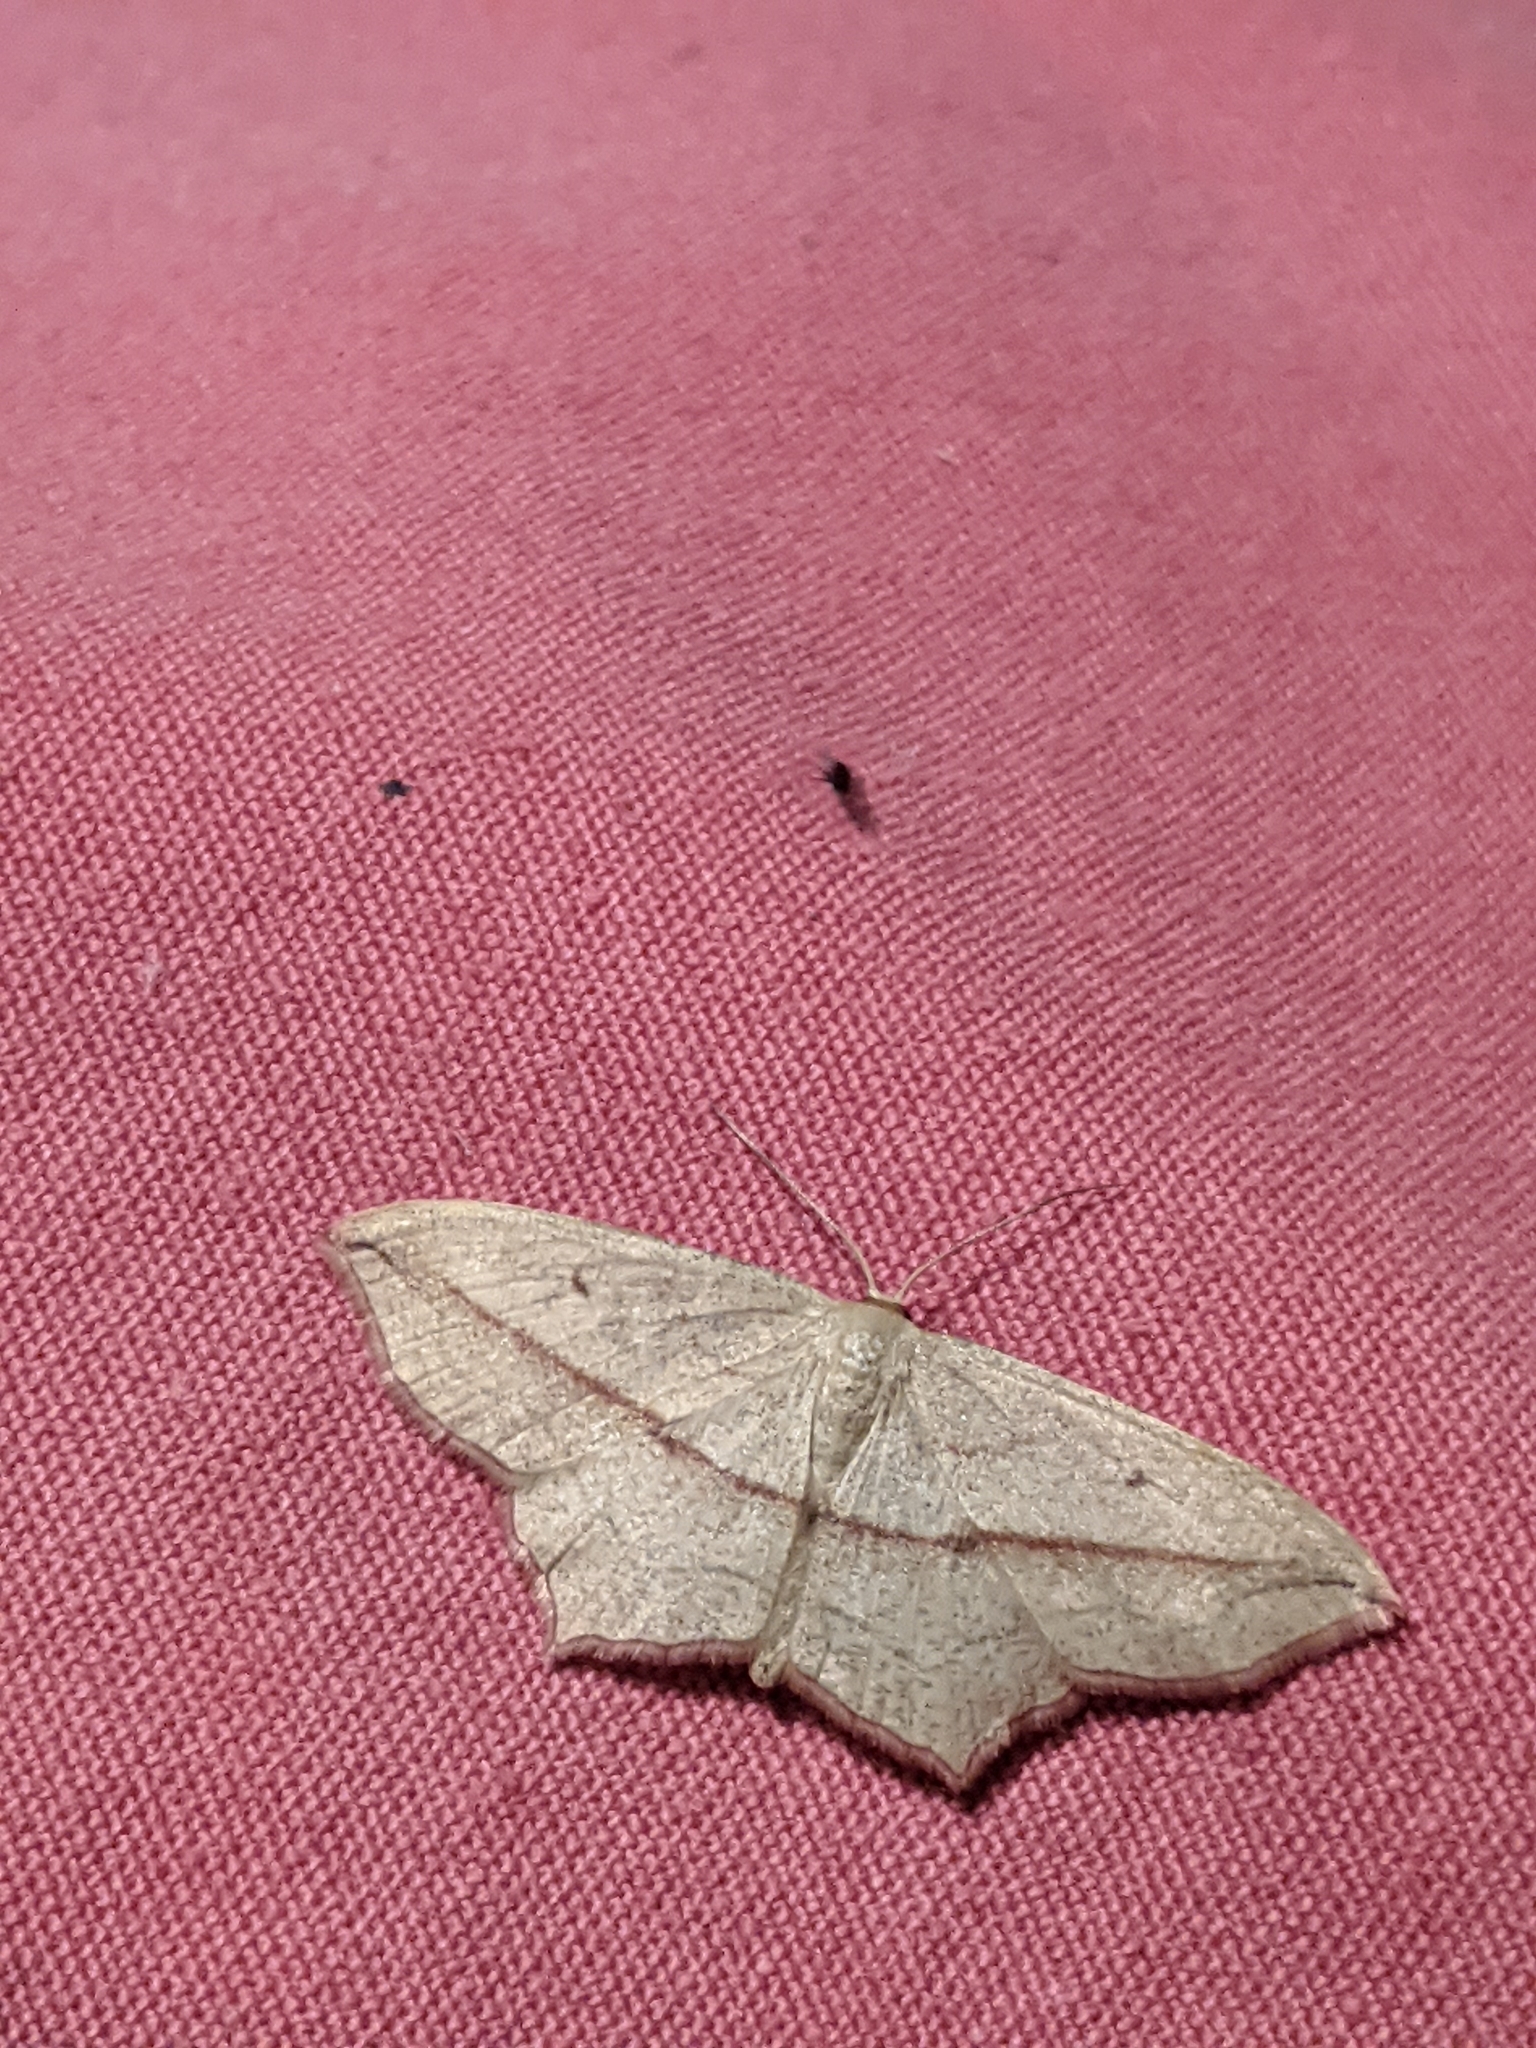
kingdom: Animalia
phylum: Arthropoda
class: Insecta
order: Lepidoptera
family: Geometridae
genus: Timandra
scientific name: Timandra comae
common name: Blood-vein
